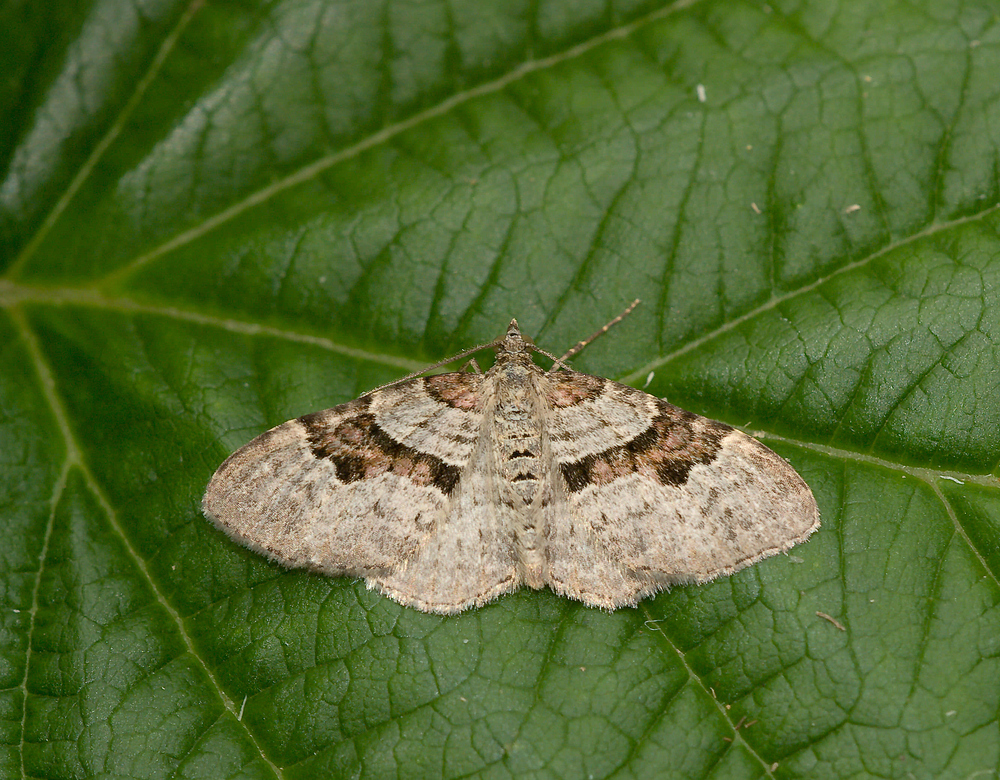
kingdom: Animalia
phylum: Arthropoda
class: Insecta
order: Lepidoptera
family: Geometridae
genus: Xanthorhoe
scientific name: Xanthorhoe designata
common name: Flame carpet
